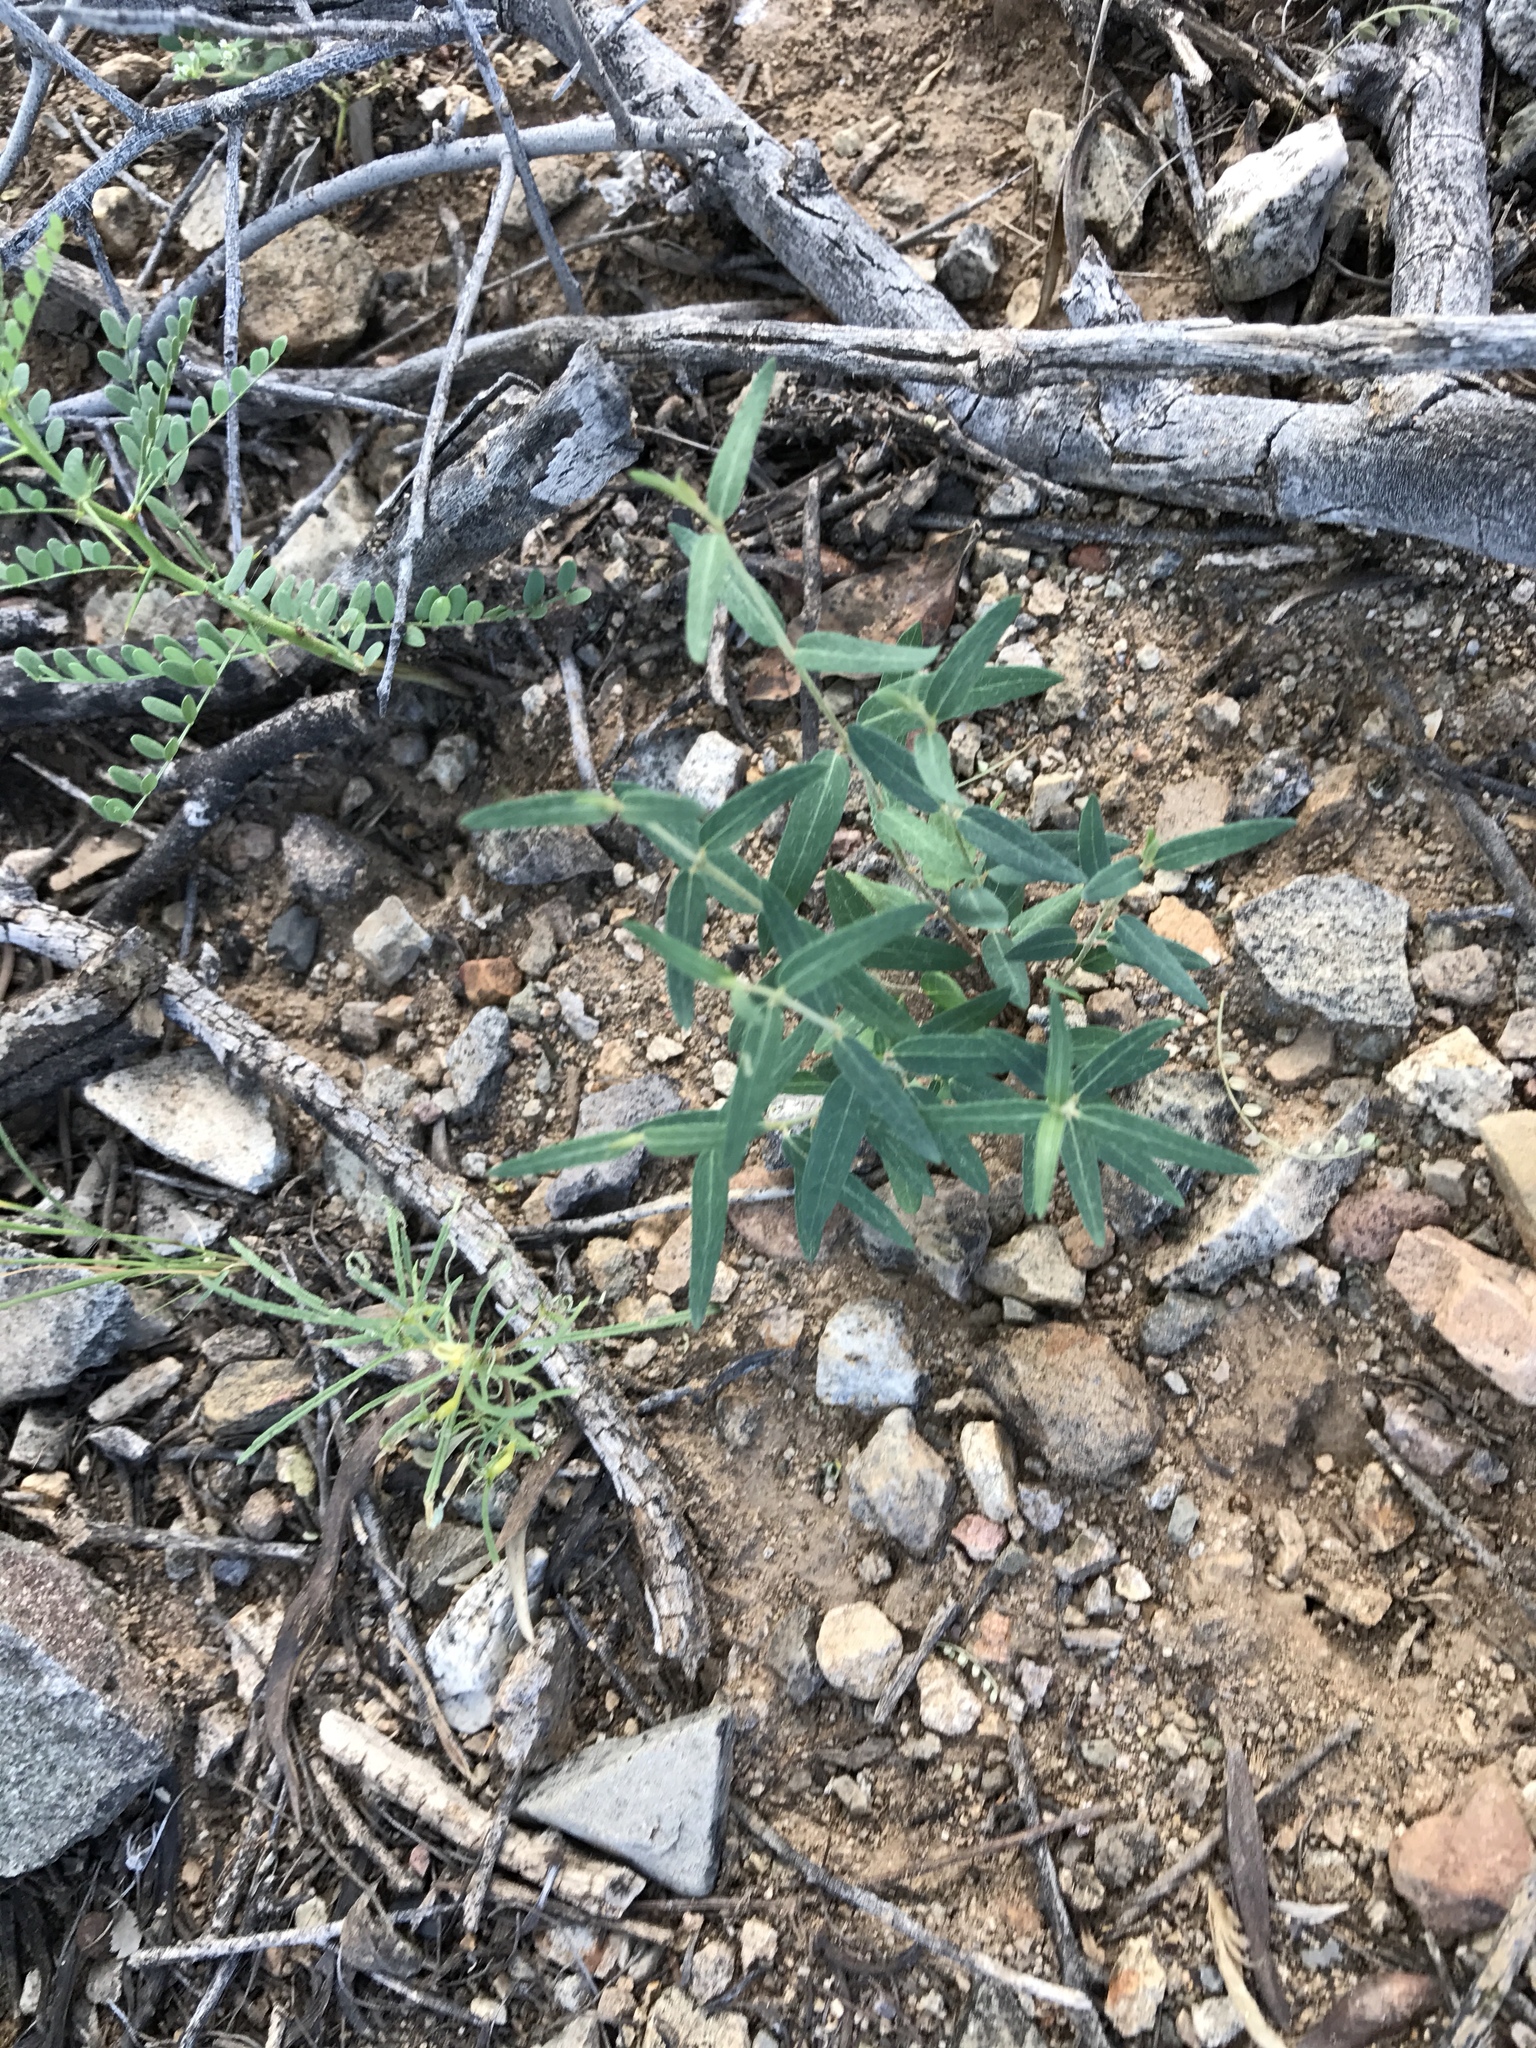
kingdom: Plantae
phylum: Tracheophyta
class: Magnoliopsida
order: Malpighiales
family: Malpighiaceae
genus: Cottsia
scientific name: Cottsia gracilis
